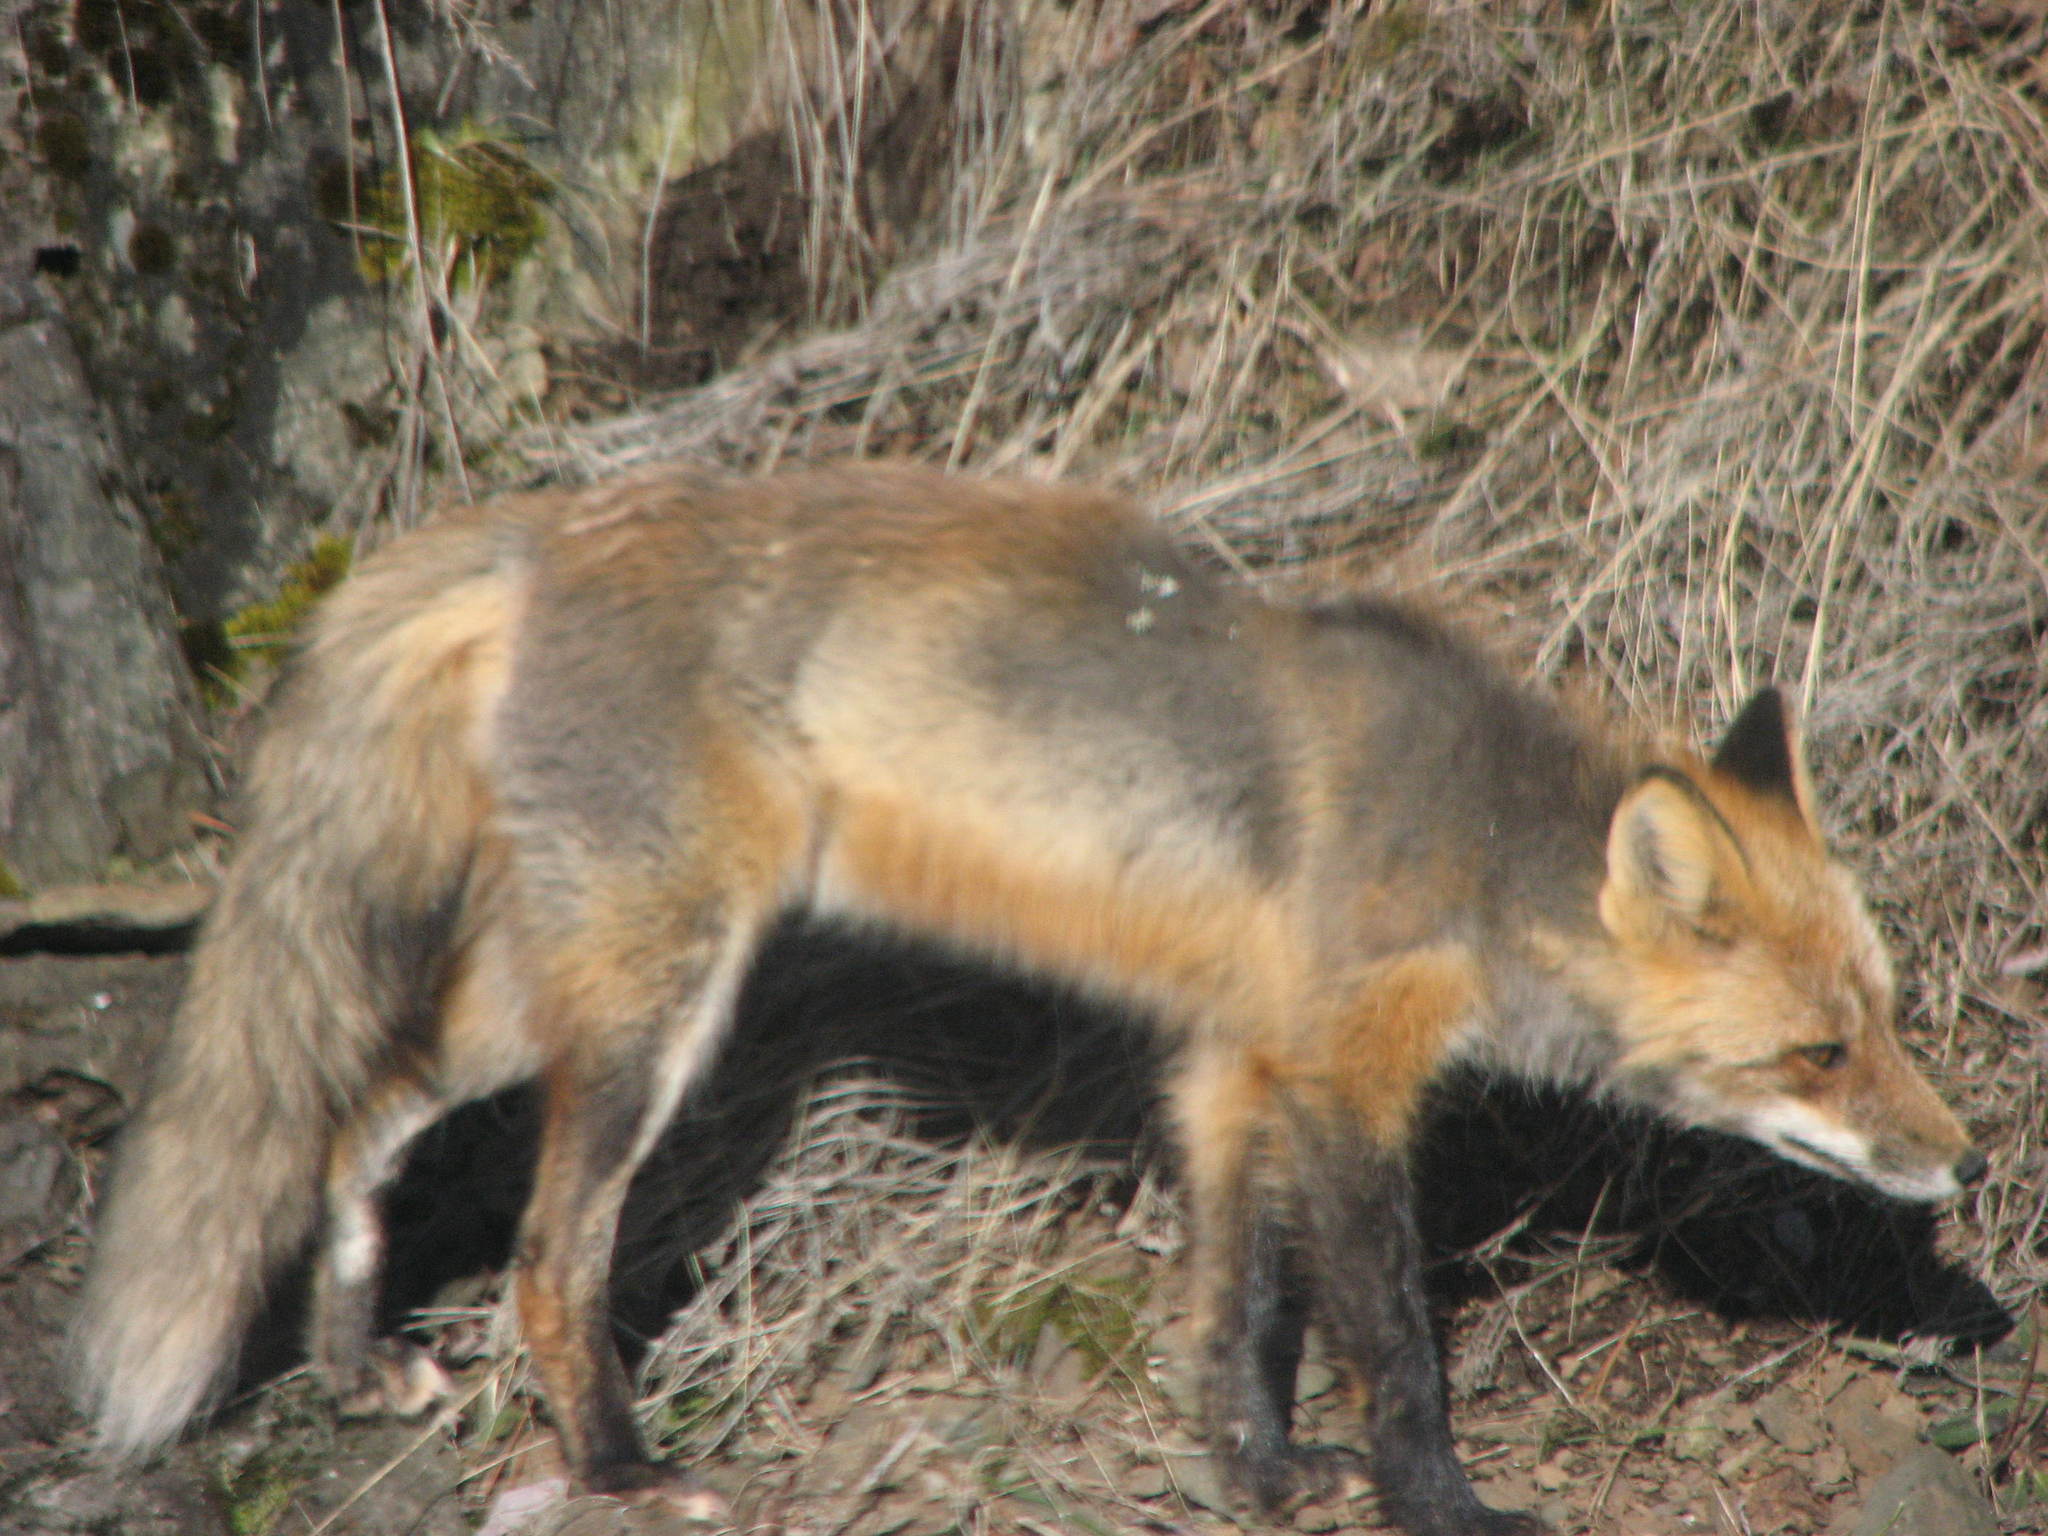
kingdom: Animalia
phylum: Chordata
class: Mammalia
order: Carnivora
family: Canidae
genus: Vulpes
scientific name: Vulpes vulpes
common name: Red fox
